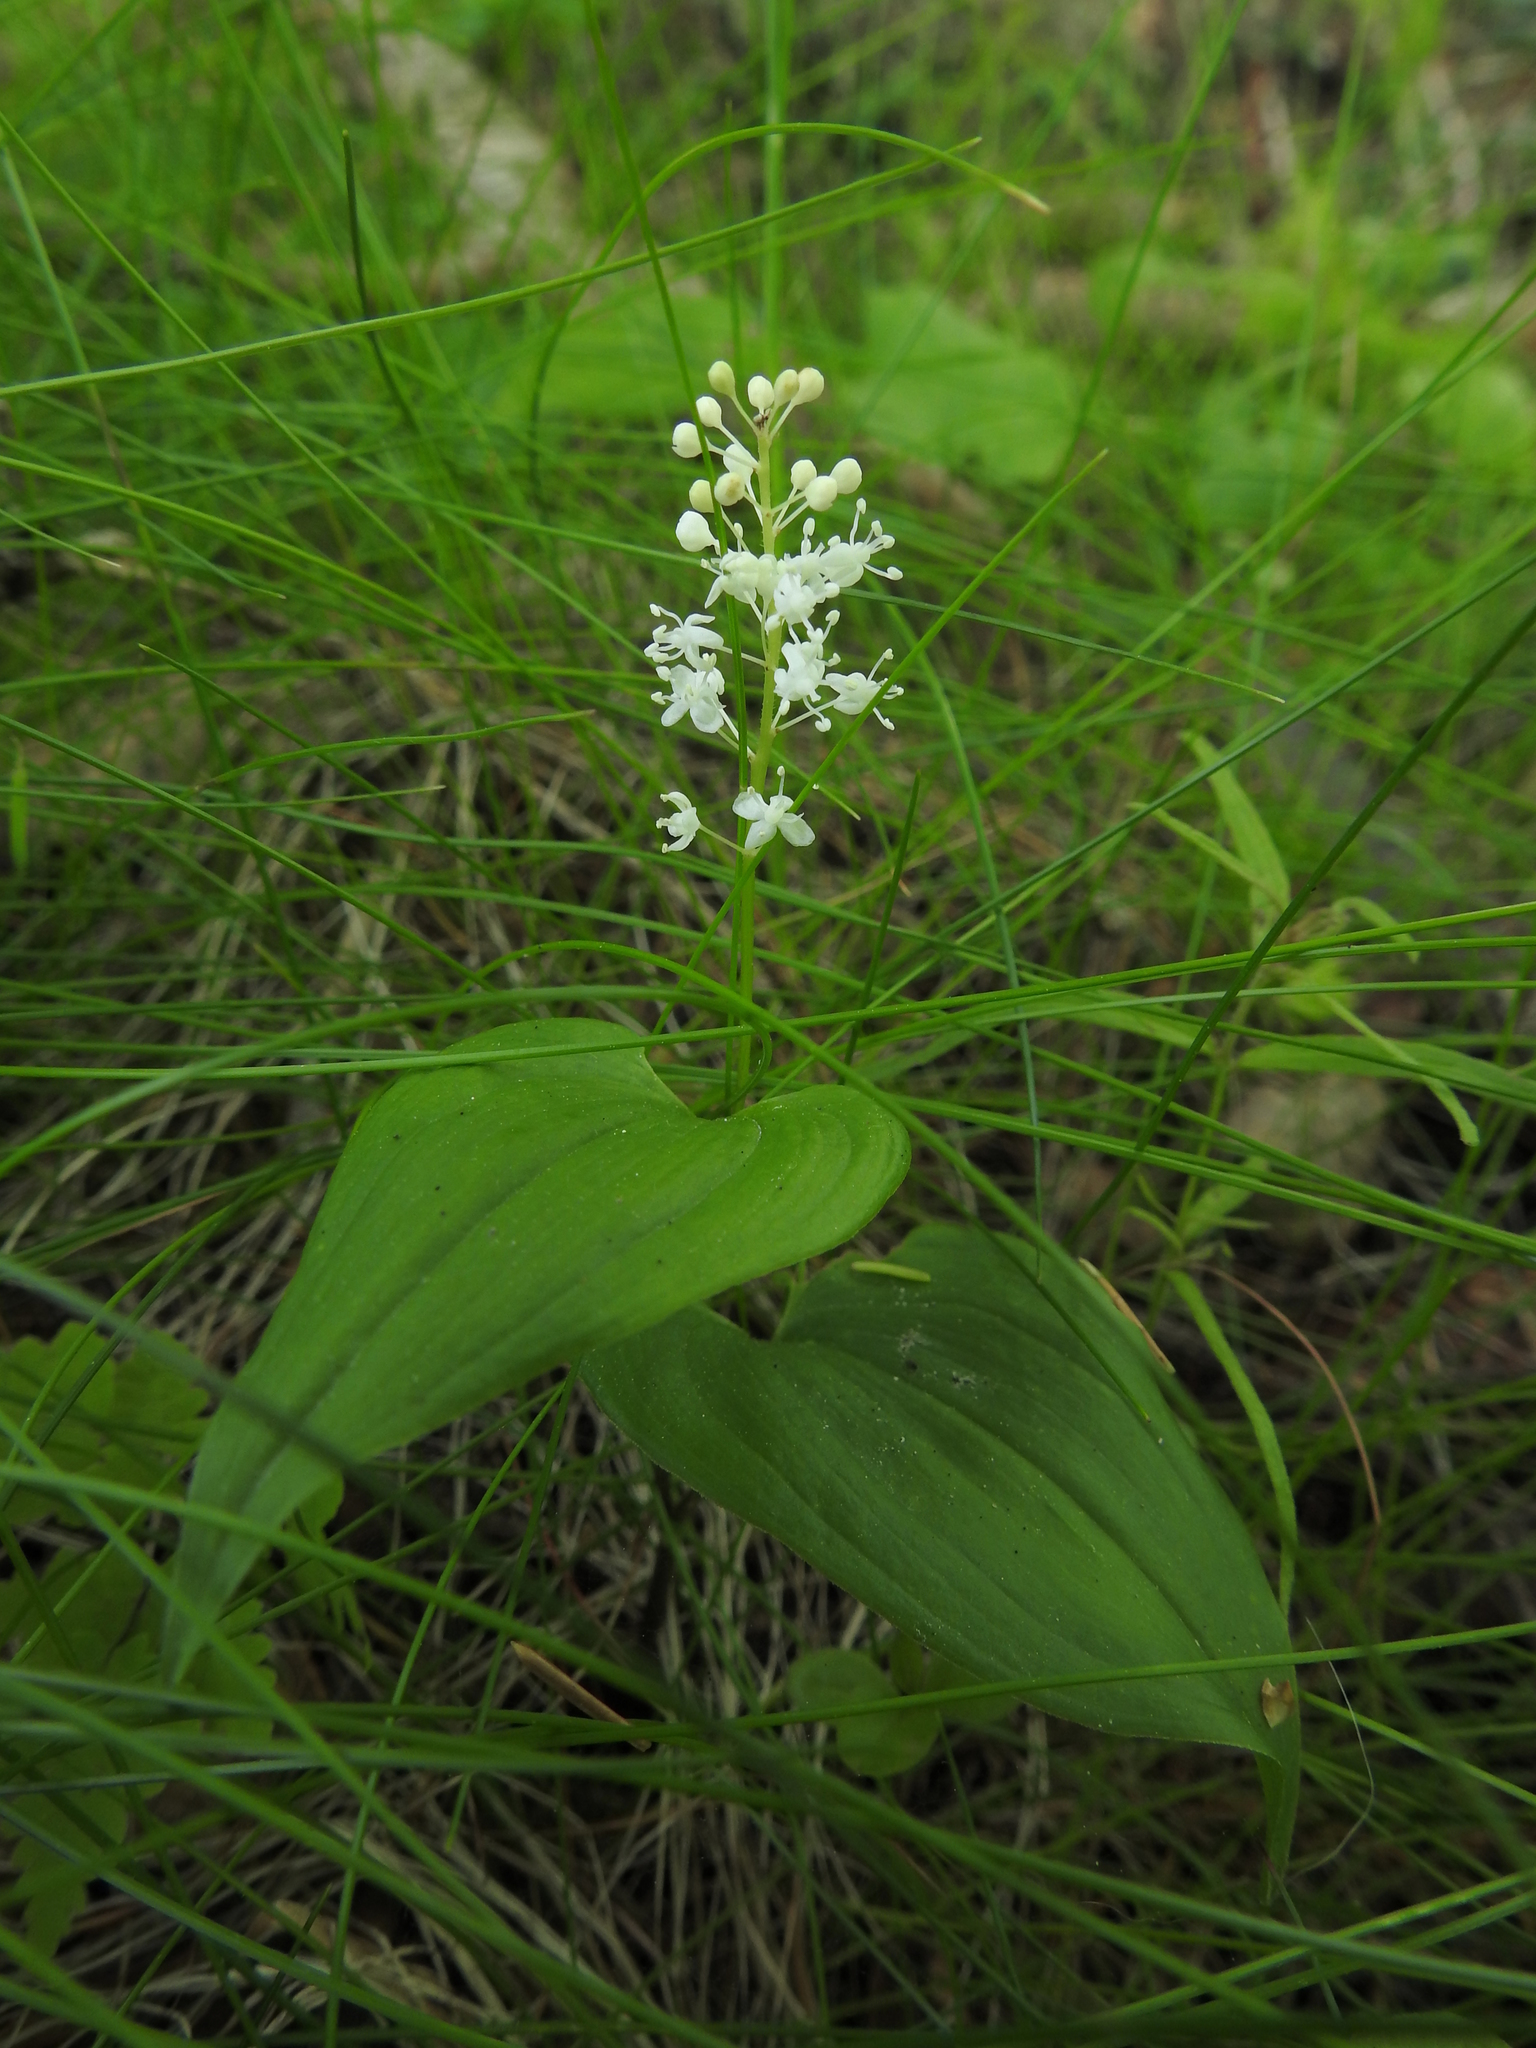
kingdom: Plantae
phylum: Tracheophyta
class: Liliopsida
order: Asparagales
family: Asparagaceae
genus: Maianthemum
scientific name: Maianthemum bifolium
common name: May lily
